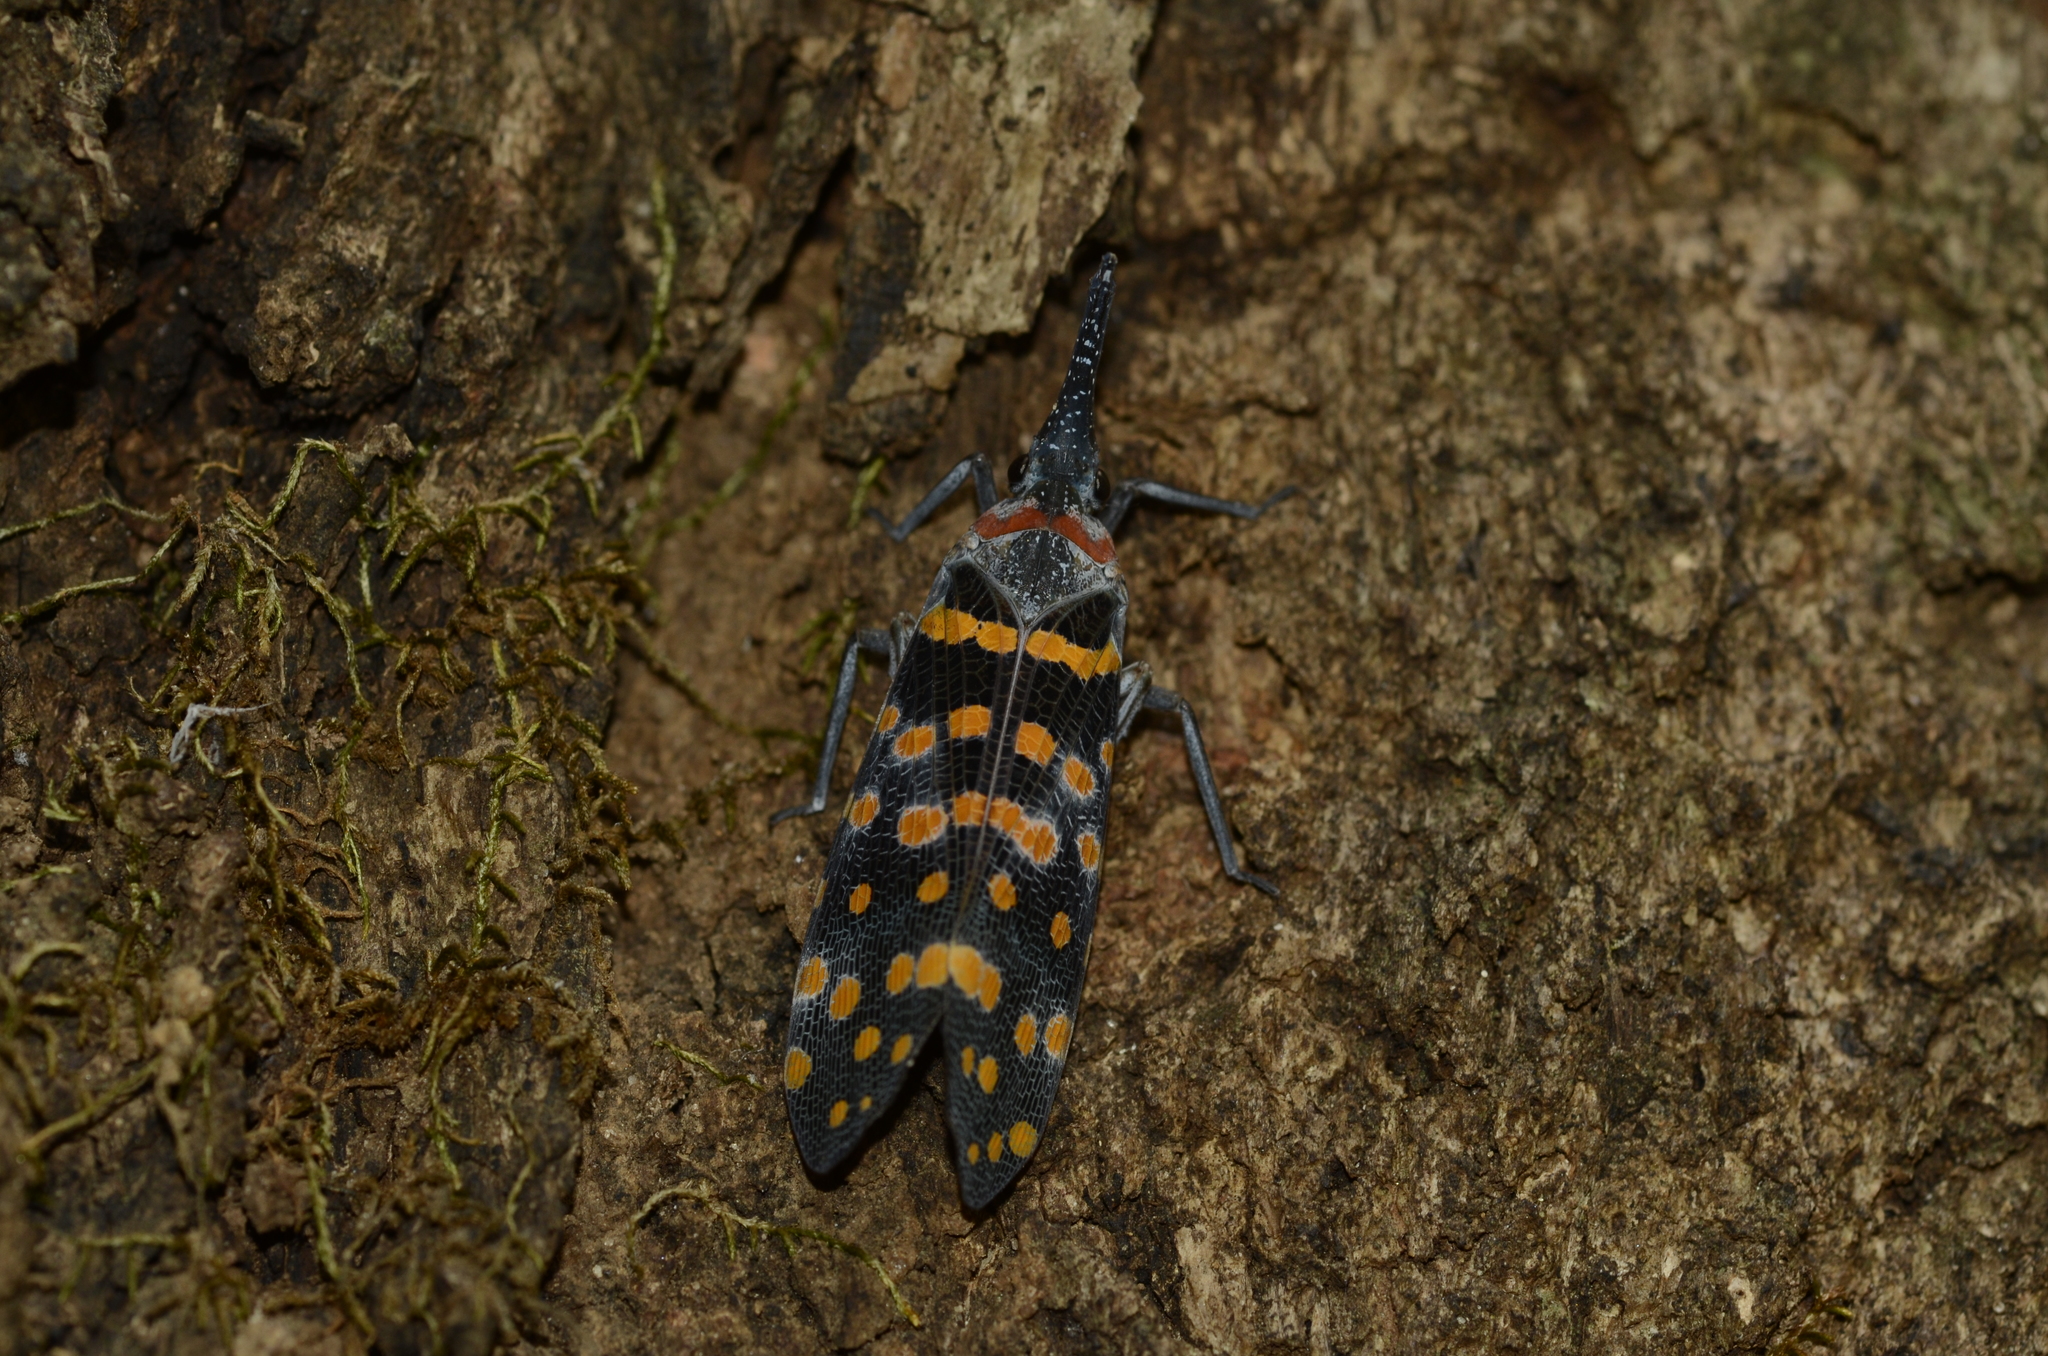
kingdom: Animalia
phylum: Arthropoda
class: Insecta
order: Hemiptera
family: Fulgoridae
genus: Pyrops
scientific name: Pyrops
